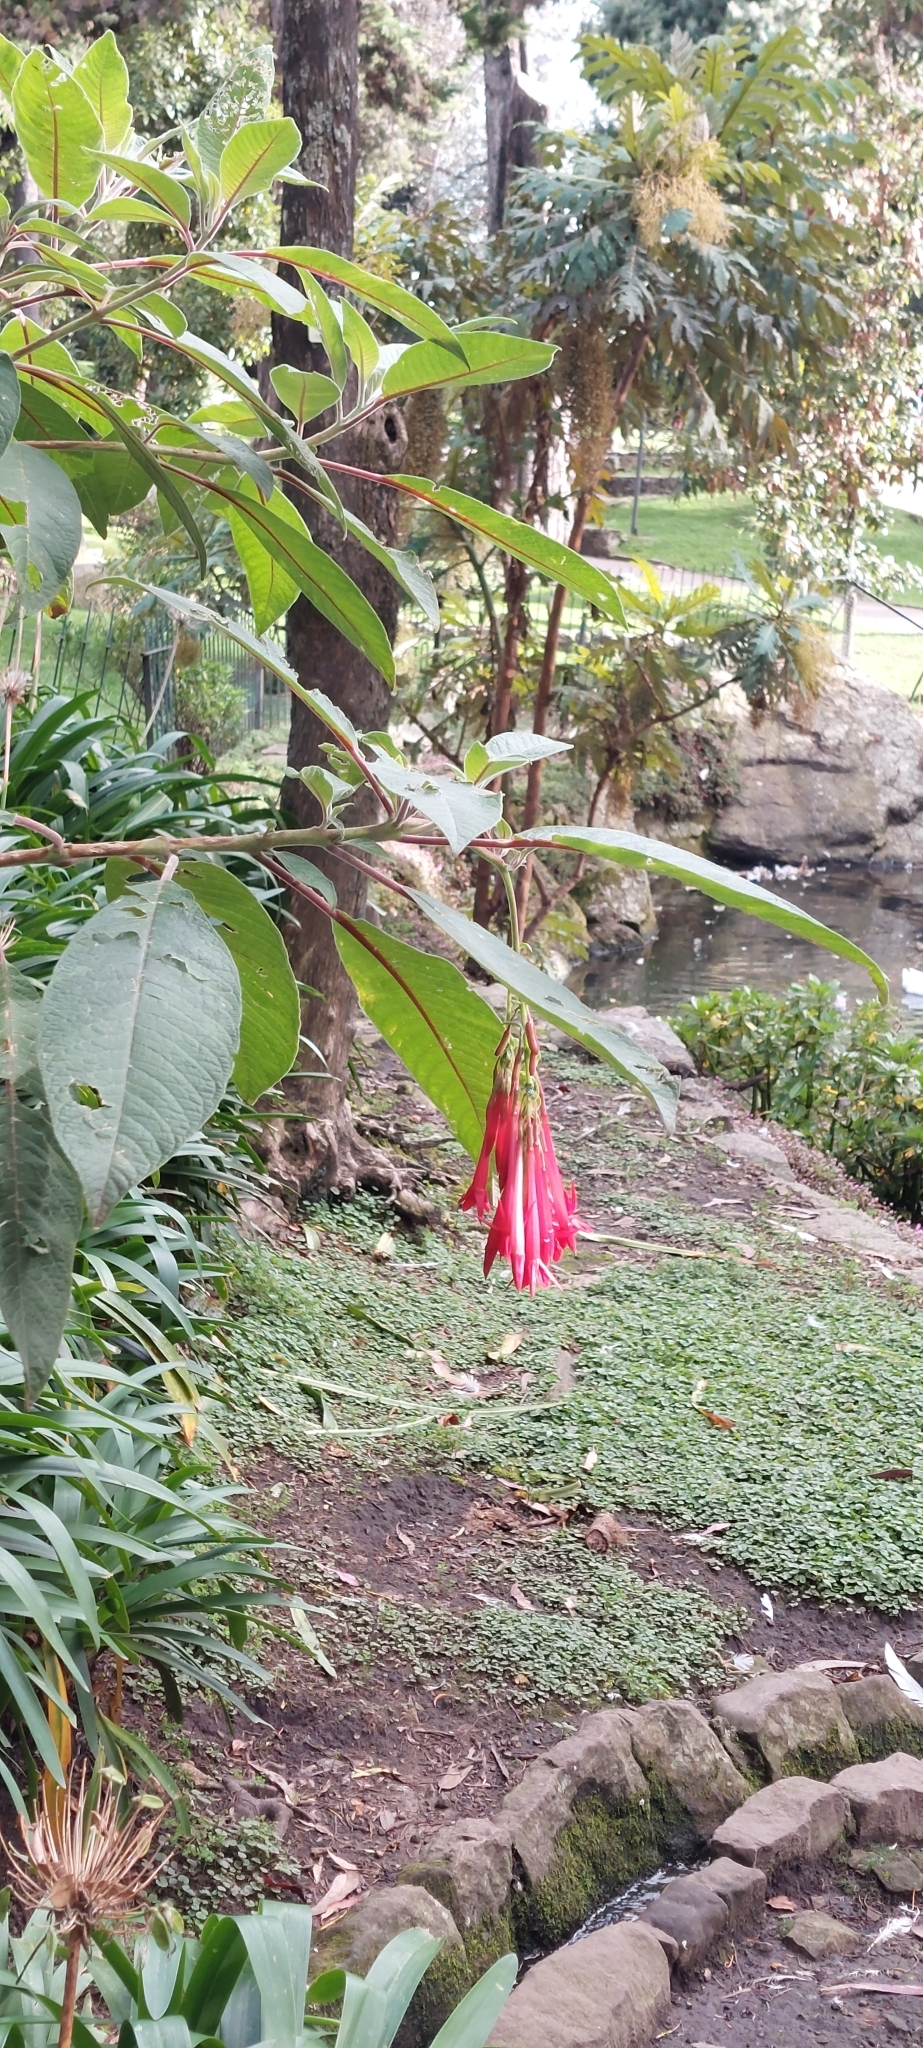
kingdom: Plantae
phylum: Tracheophyta
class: Magnoliopsida
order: Myrtales
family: Onagraceae
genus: Fuchsia
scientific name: Fuchsia boliviana
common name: Bolivian fuchsia
